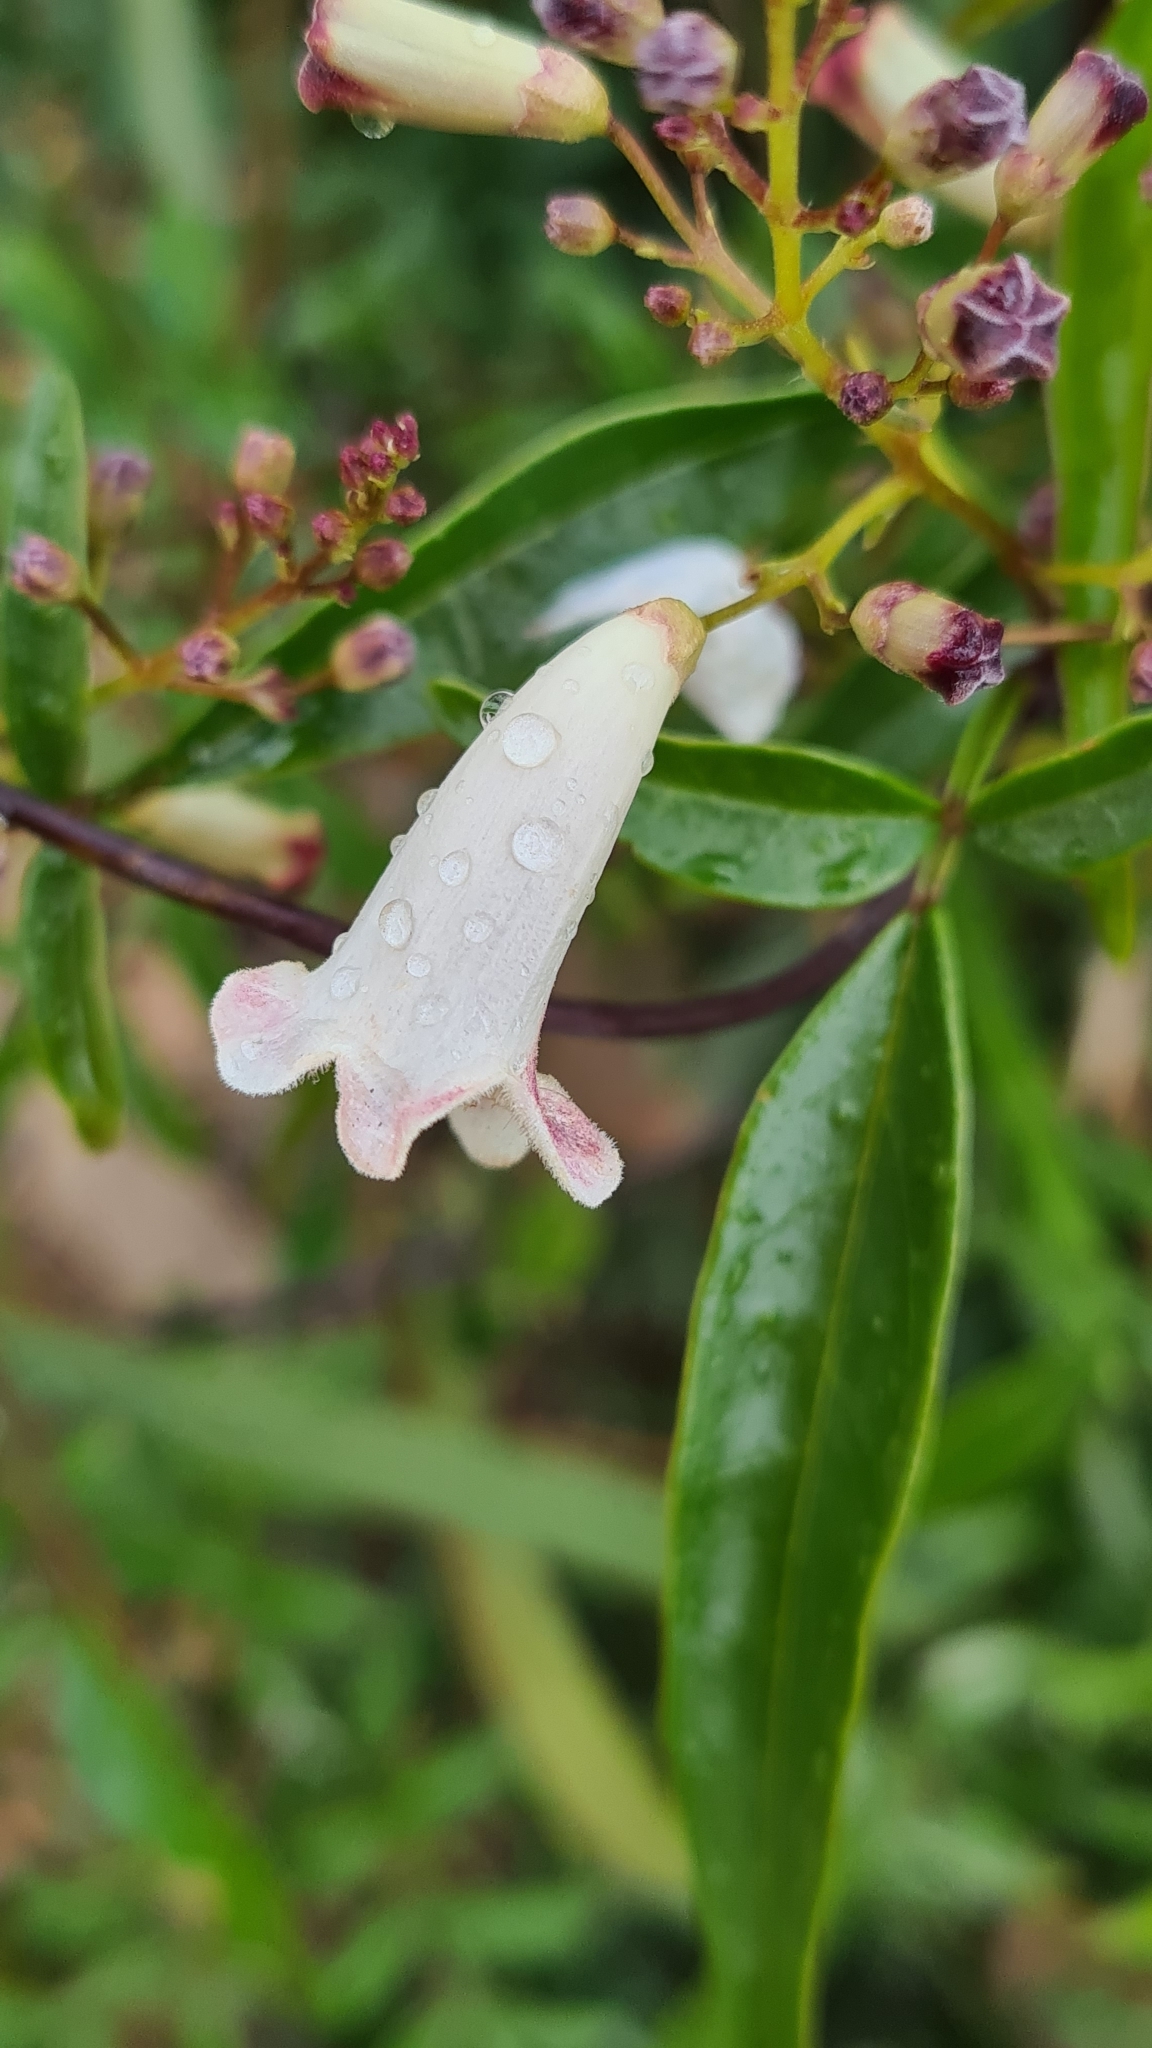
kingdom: Plantae
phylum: Tracheophyta
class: Magnoliopsida
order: Lamiales
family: Bignoniaceae
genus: Pandorea
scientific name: Pandorea pandorana
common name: Wonga-wonga-vine
